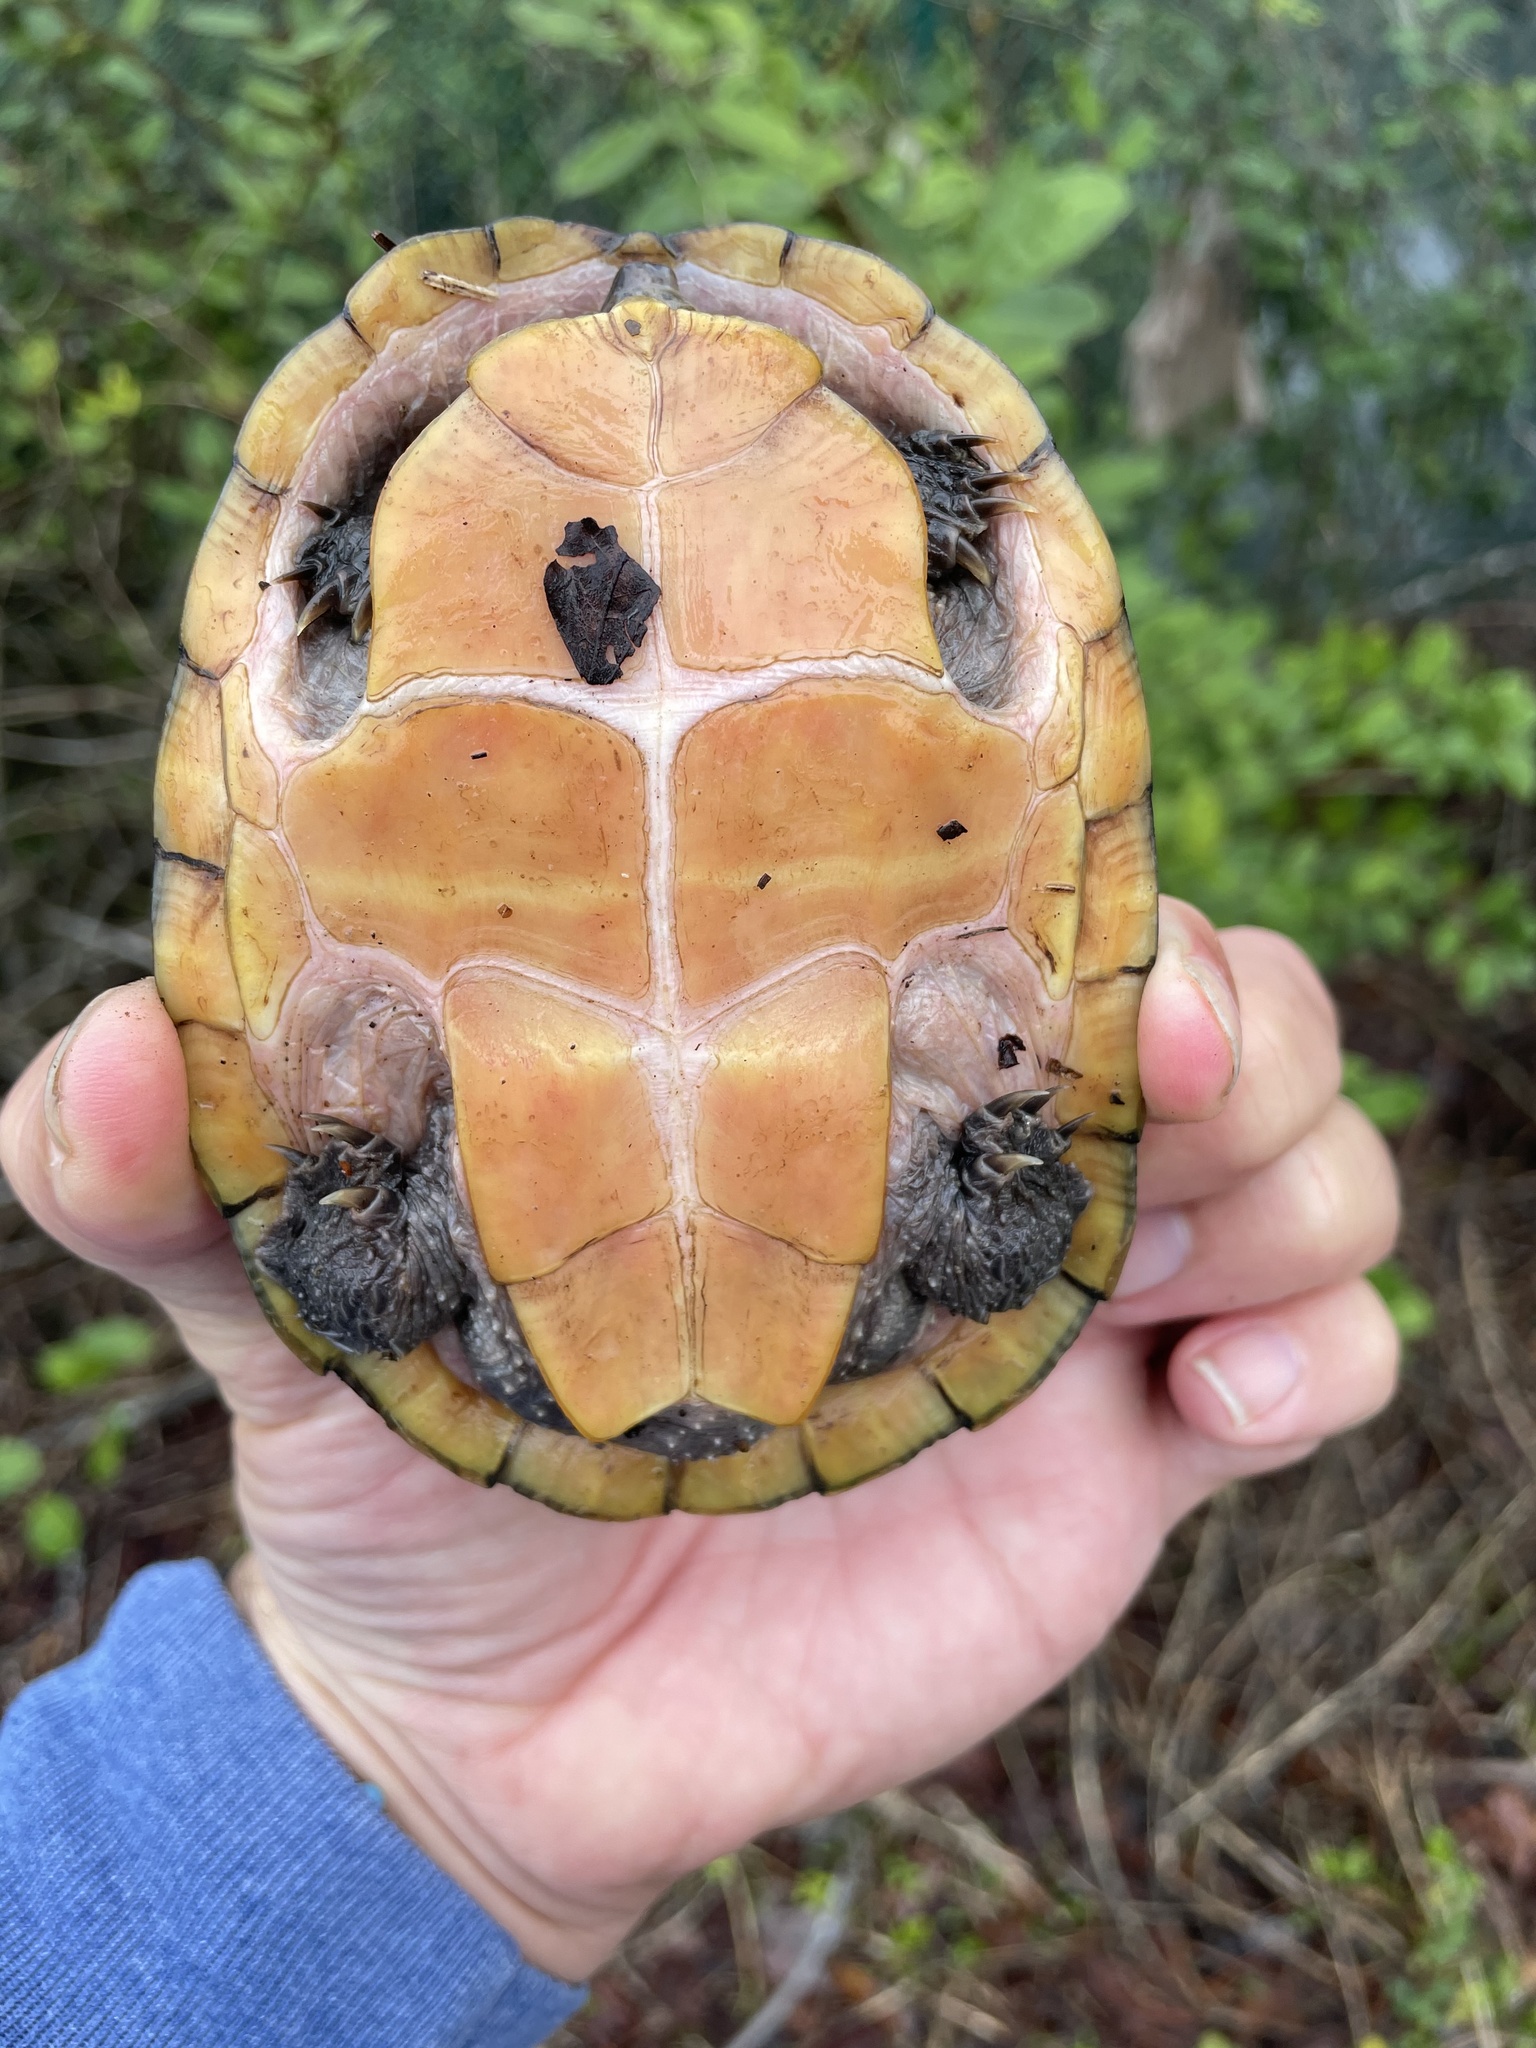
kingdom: Animalia
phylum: Chordata
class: Testudines
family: Kinosternidae
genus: Sternotherus
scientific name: Sternotherus minor
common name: Loggerhead musk turtle
